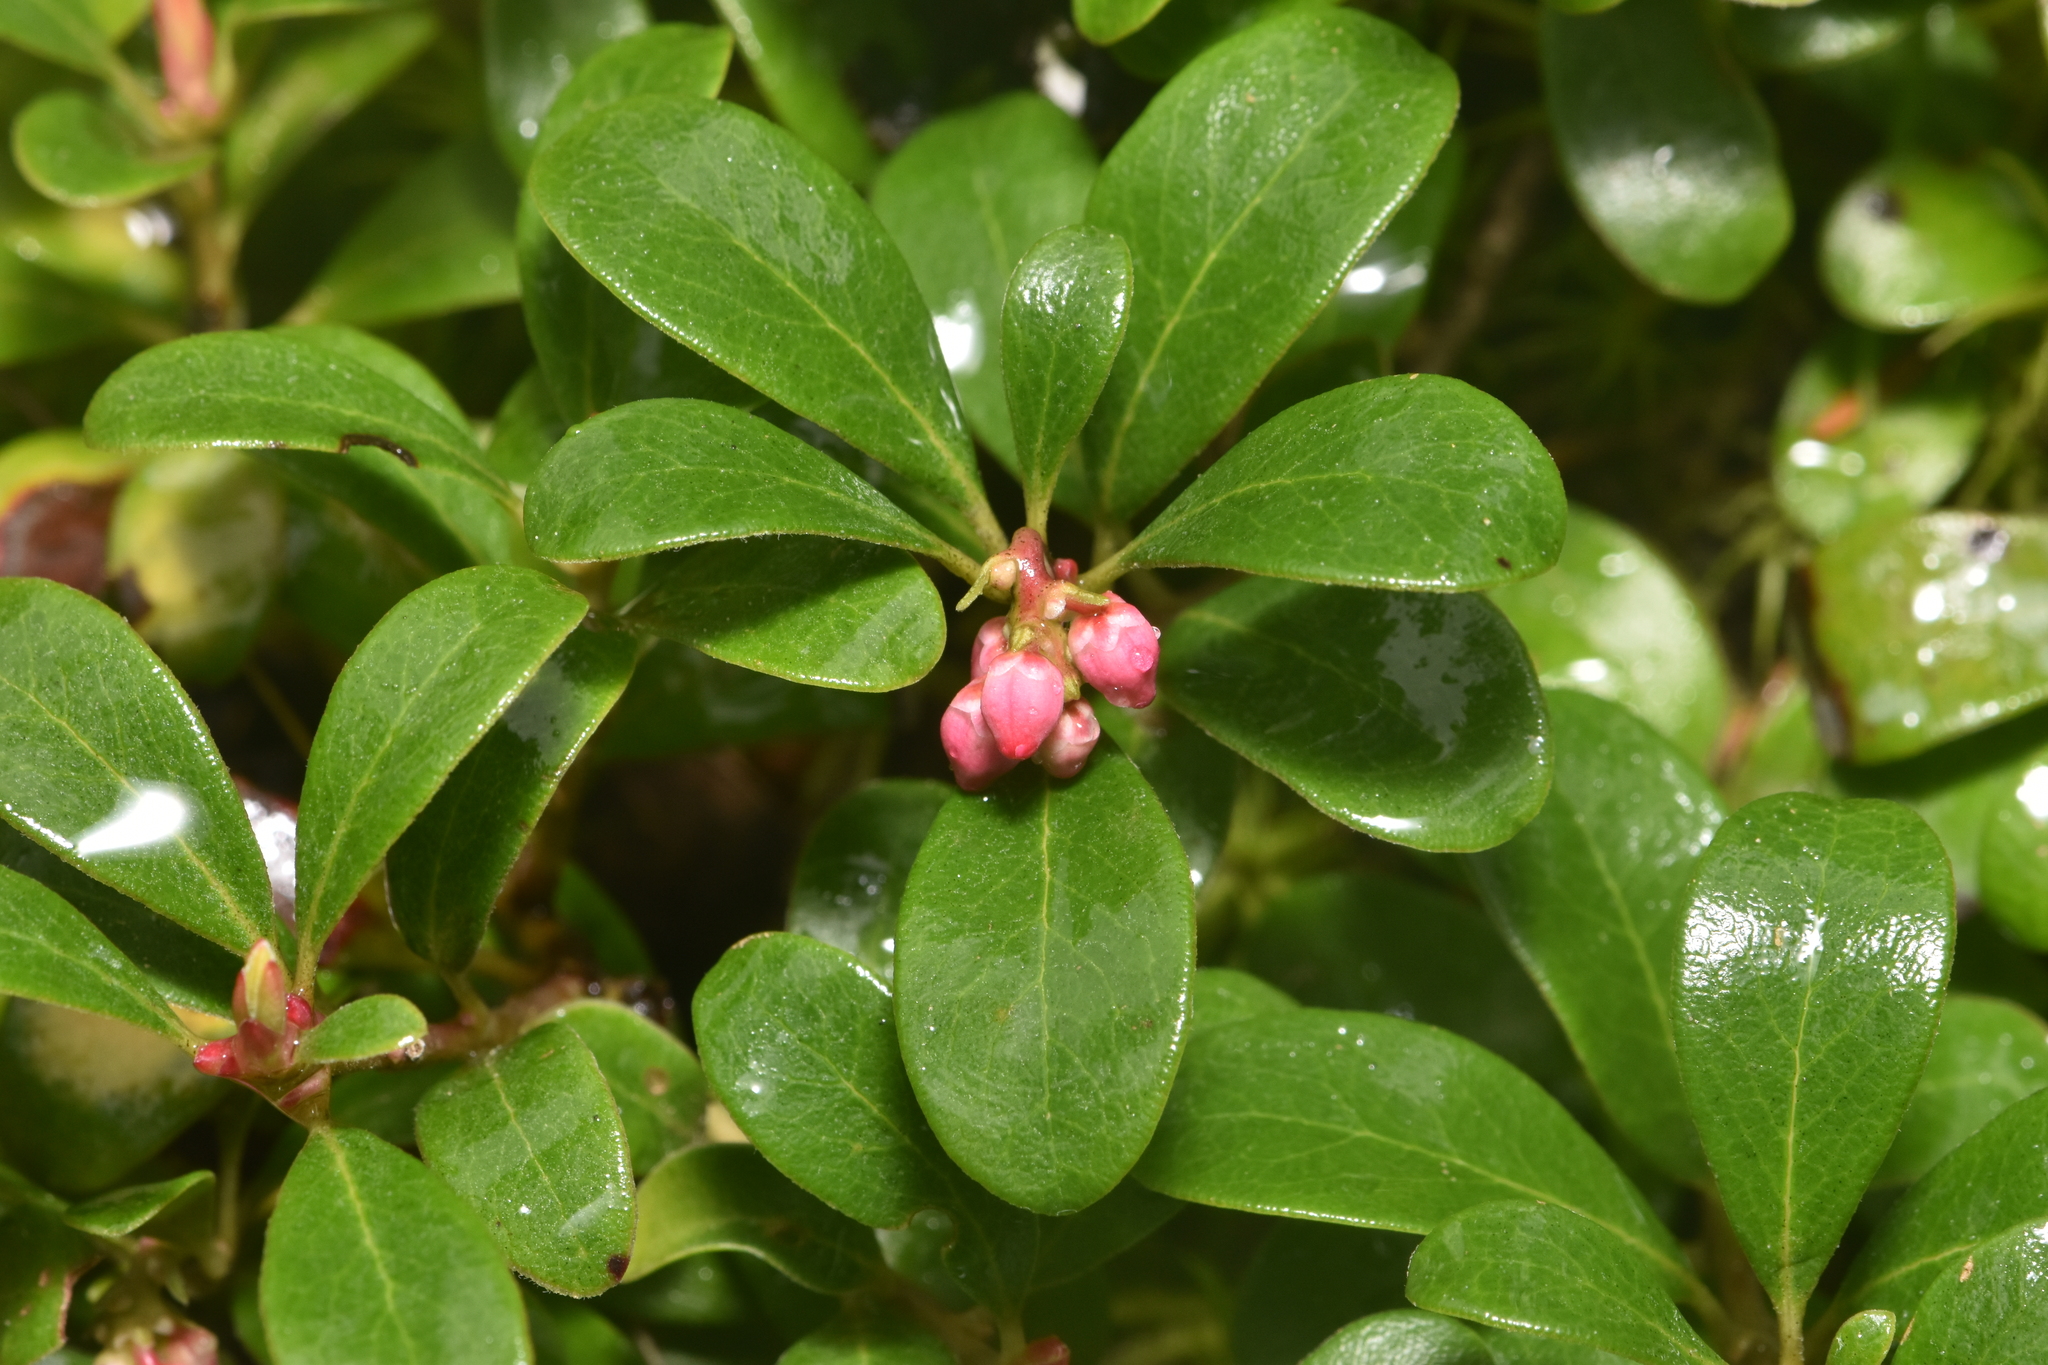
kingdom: Plantae
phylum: Tracheophyta
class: Magnoliopsida
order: Ericales
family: Ericaceae
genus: Arctostaphylos
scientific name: Arctostaphylos uva-ursi
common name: Bearberry
